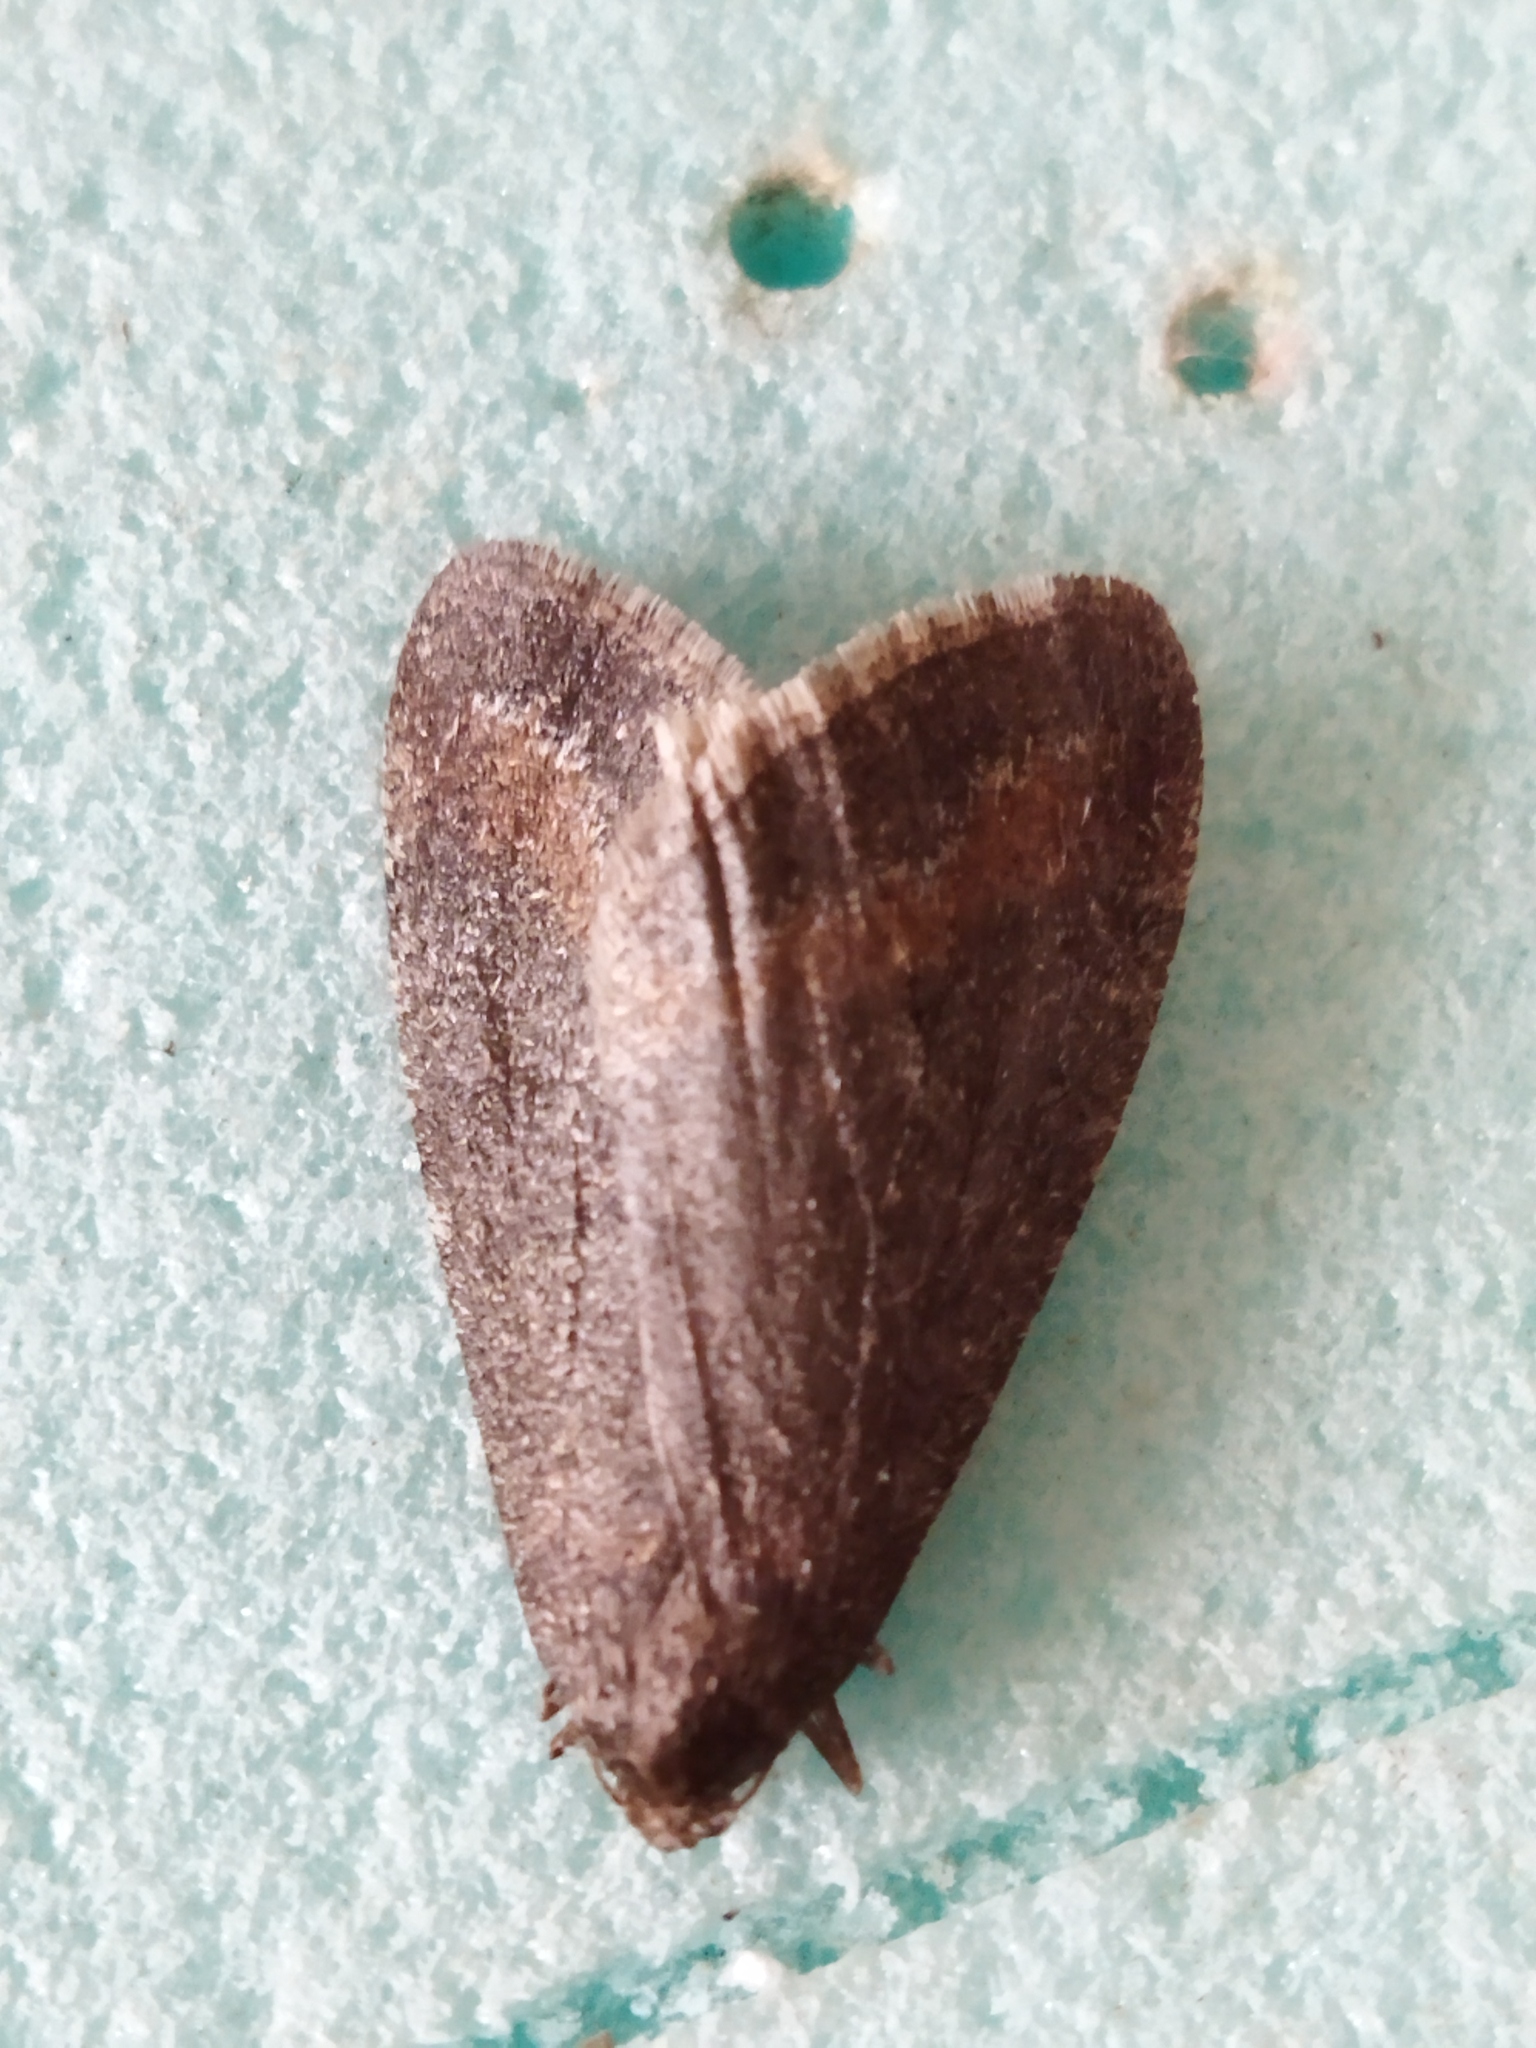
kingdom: Animalia
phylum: Arthropoda
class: Insecta
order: Lepidoptera
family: Geometridae
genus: Erannis
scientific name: Erannis declinans
